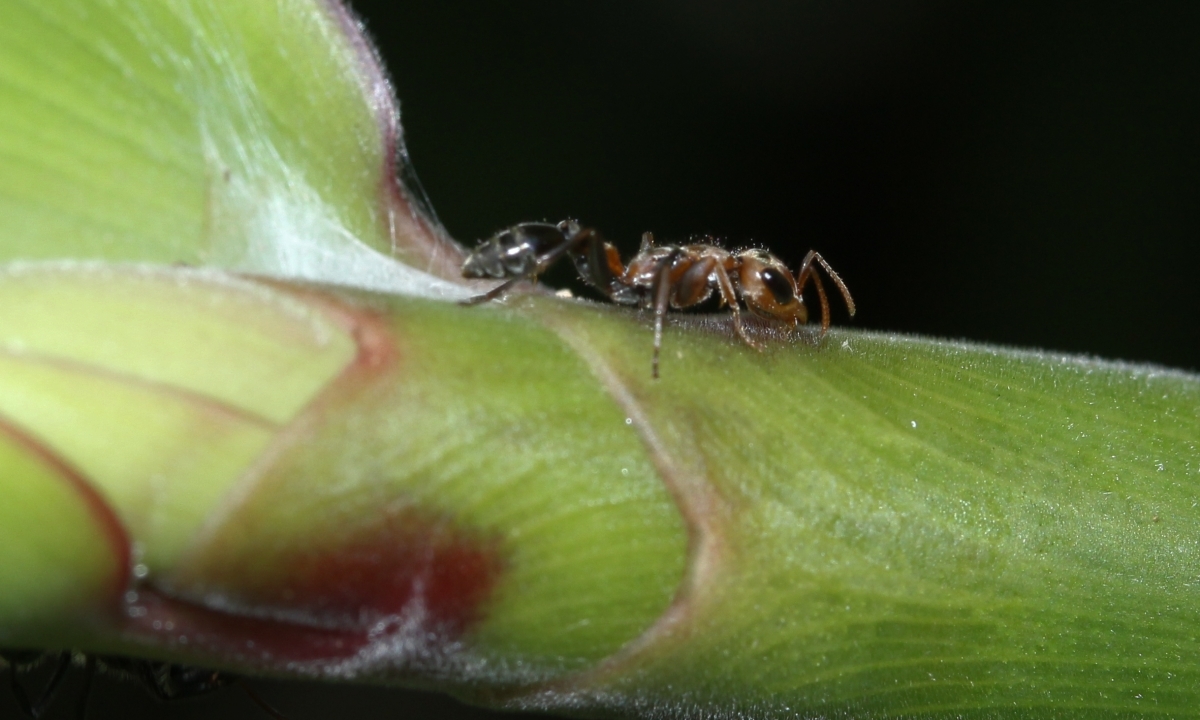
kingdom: Animalia
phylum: Arthropoda
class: Insecta
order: Hymenoptera
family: Formicidae
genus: Pseudomyrmex
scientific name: Pseudomyrmex maculatus
